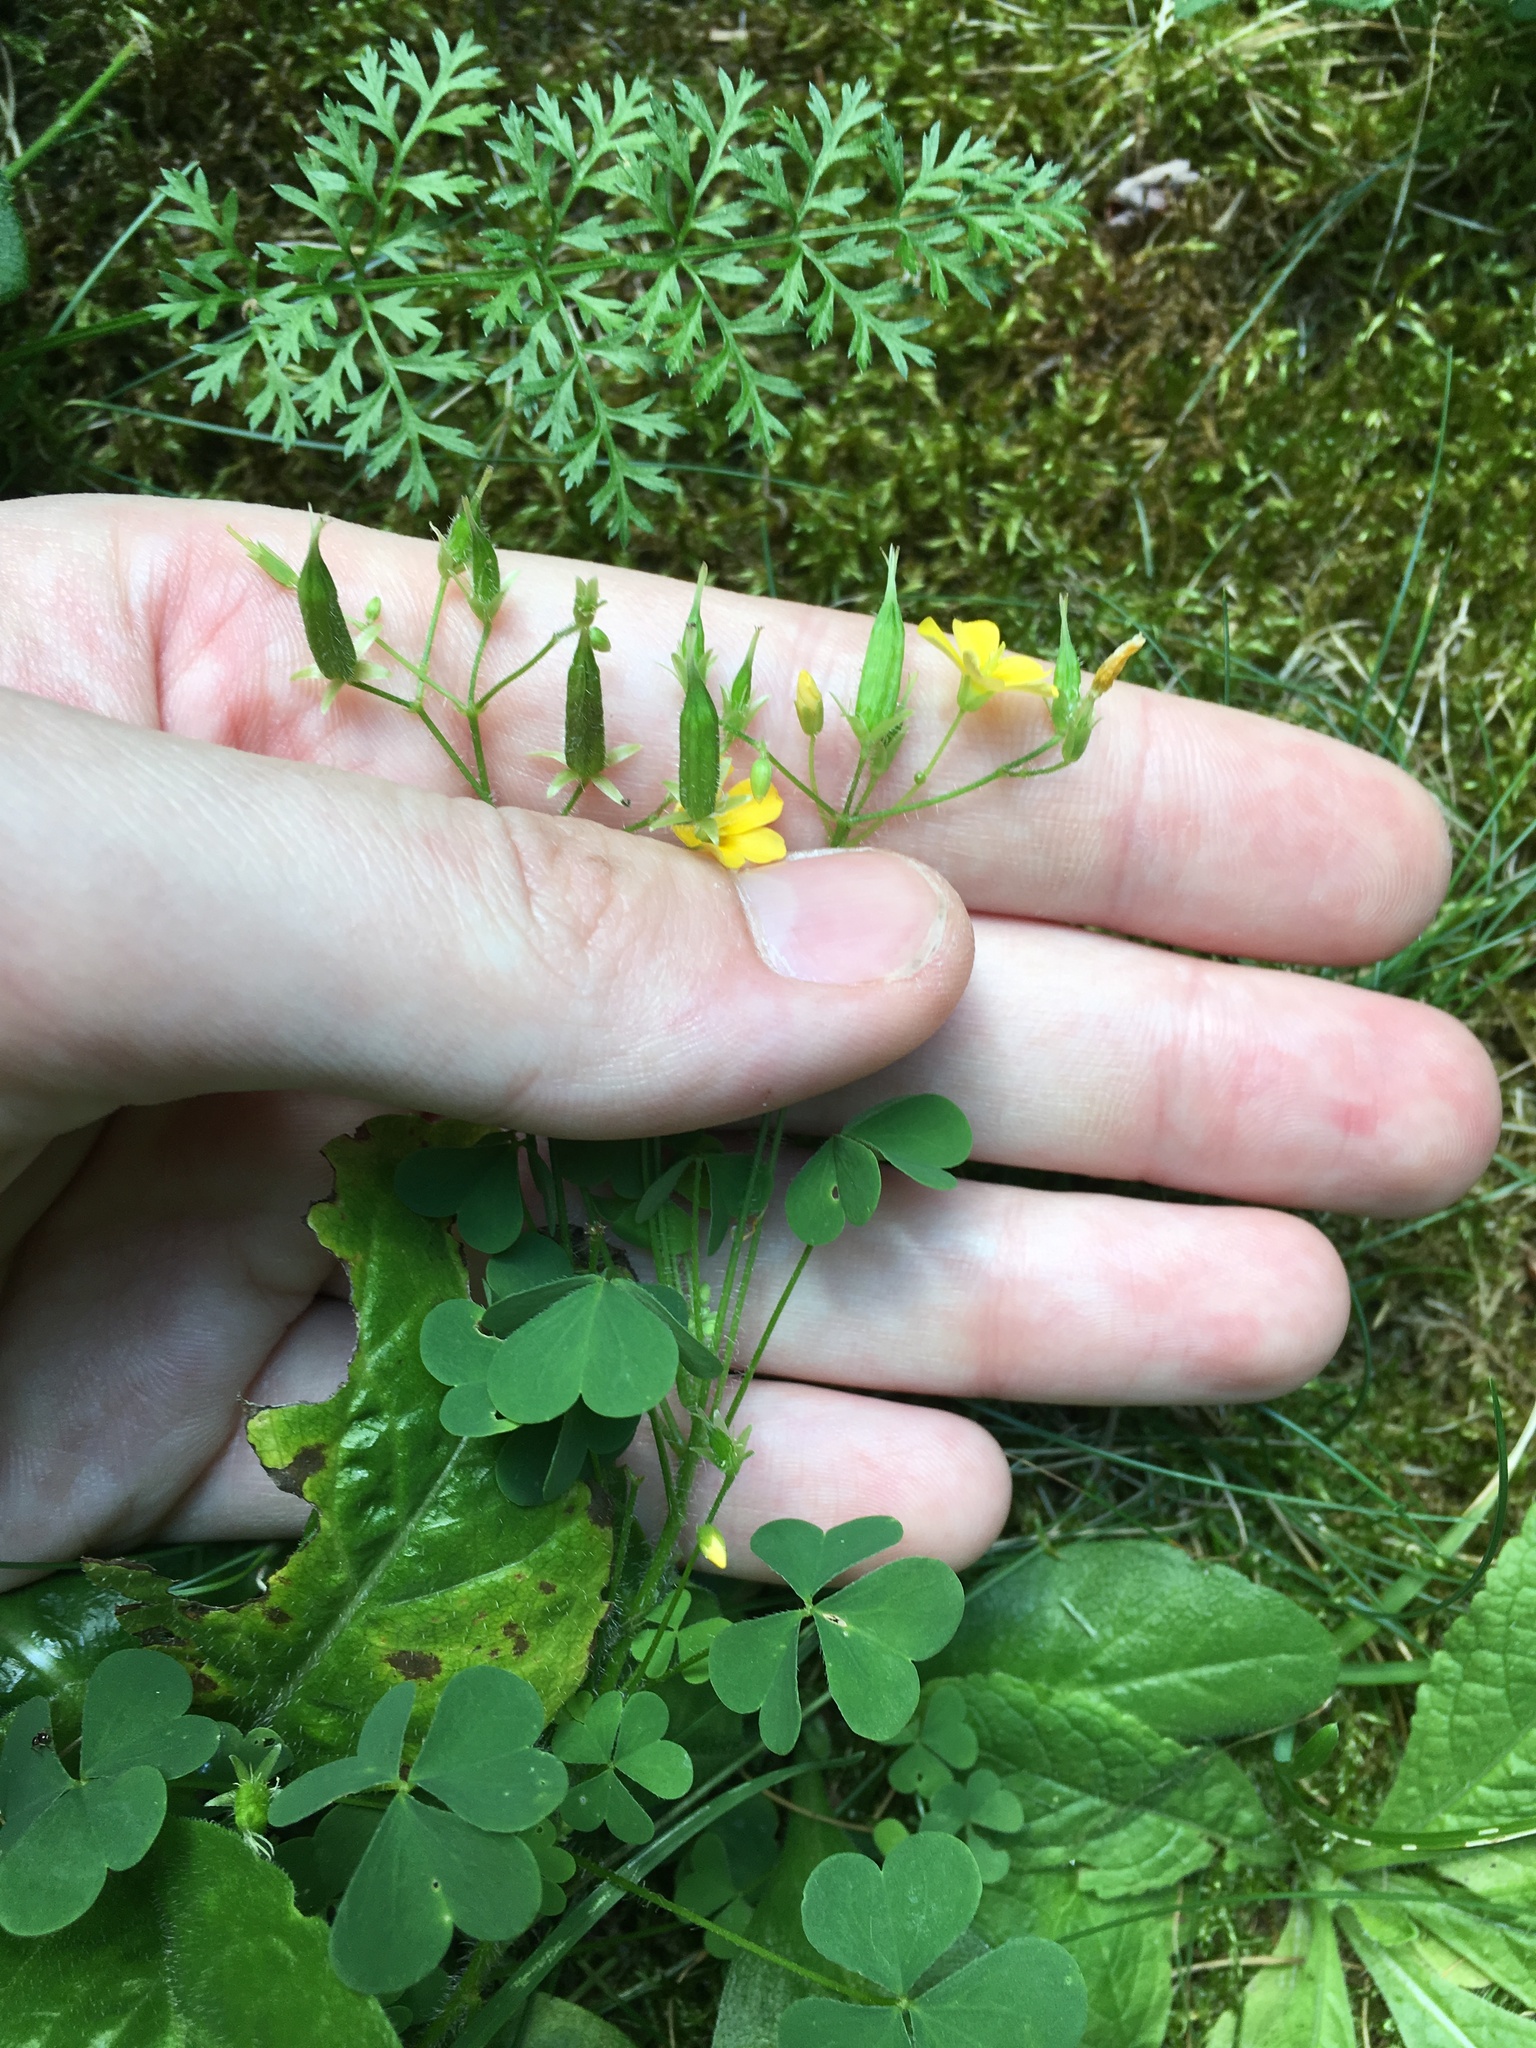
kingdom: Plantae
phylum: Tracheophyta
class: Magnoliopsida
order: Oxalidales
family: Oxalidaceae
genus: Oxalis
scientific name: Oxalis stricta
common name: Upright yellow-sorrel
